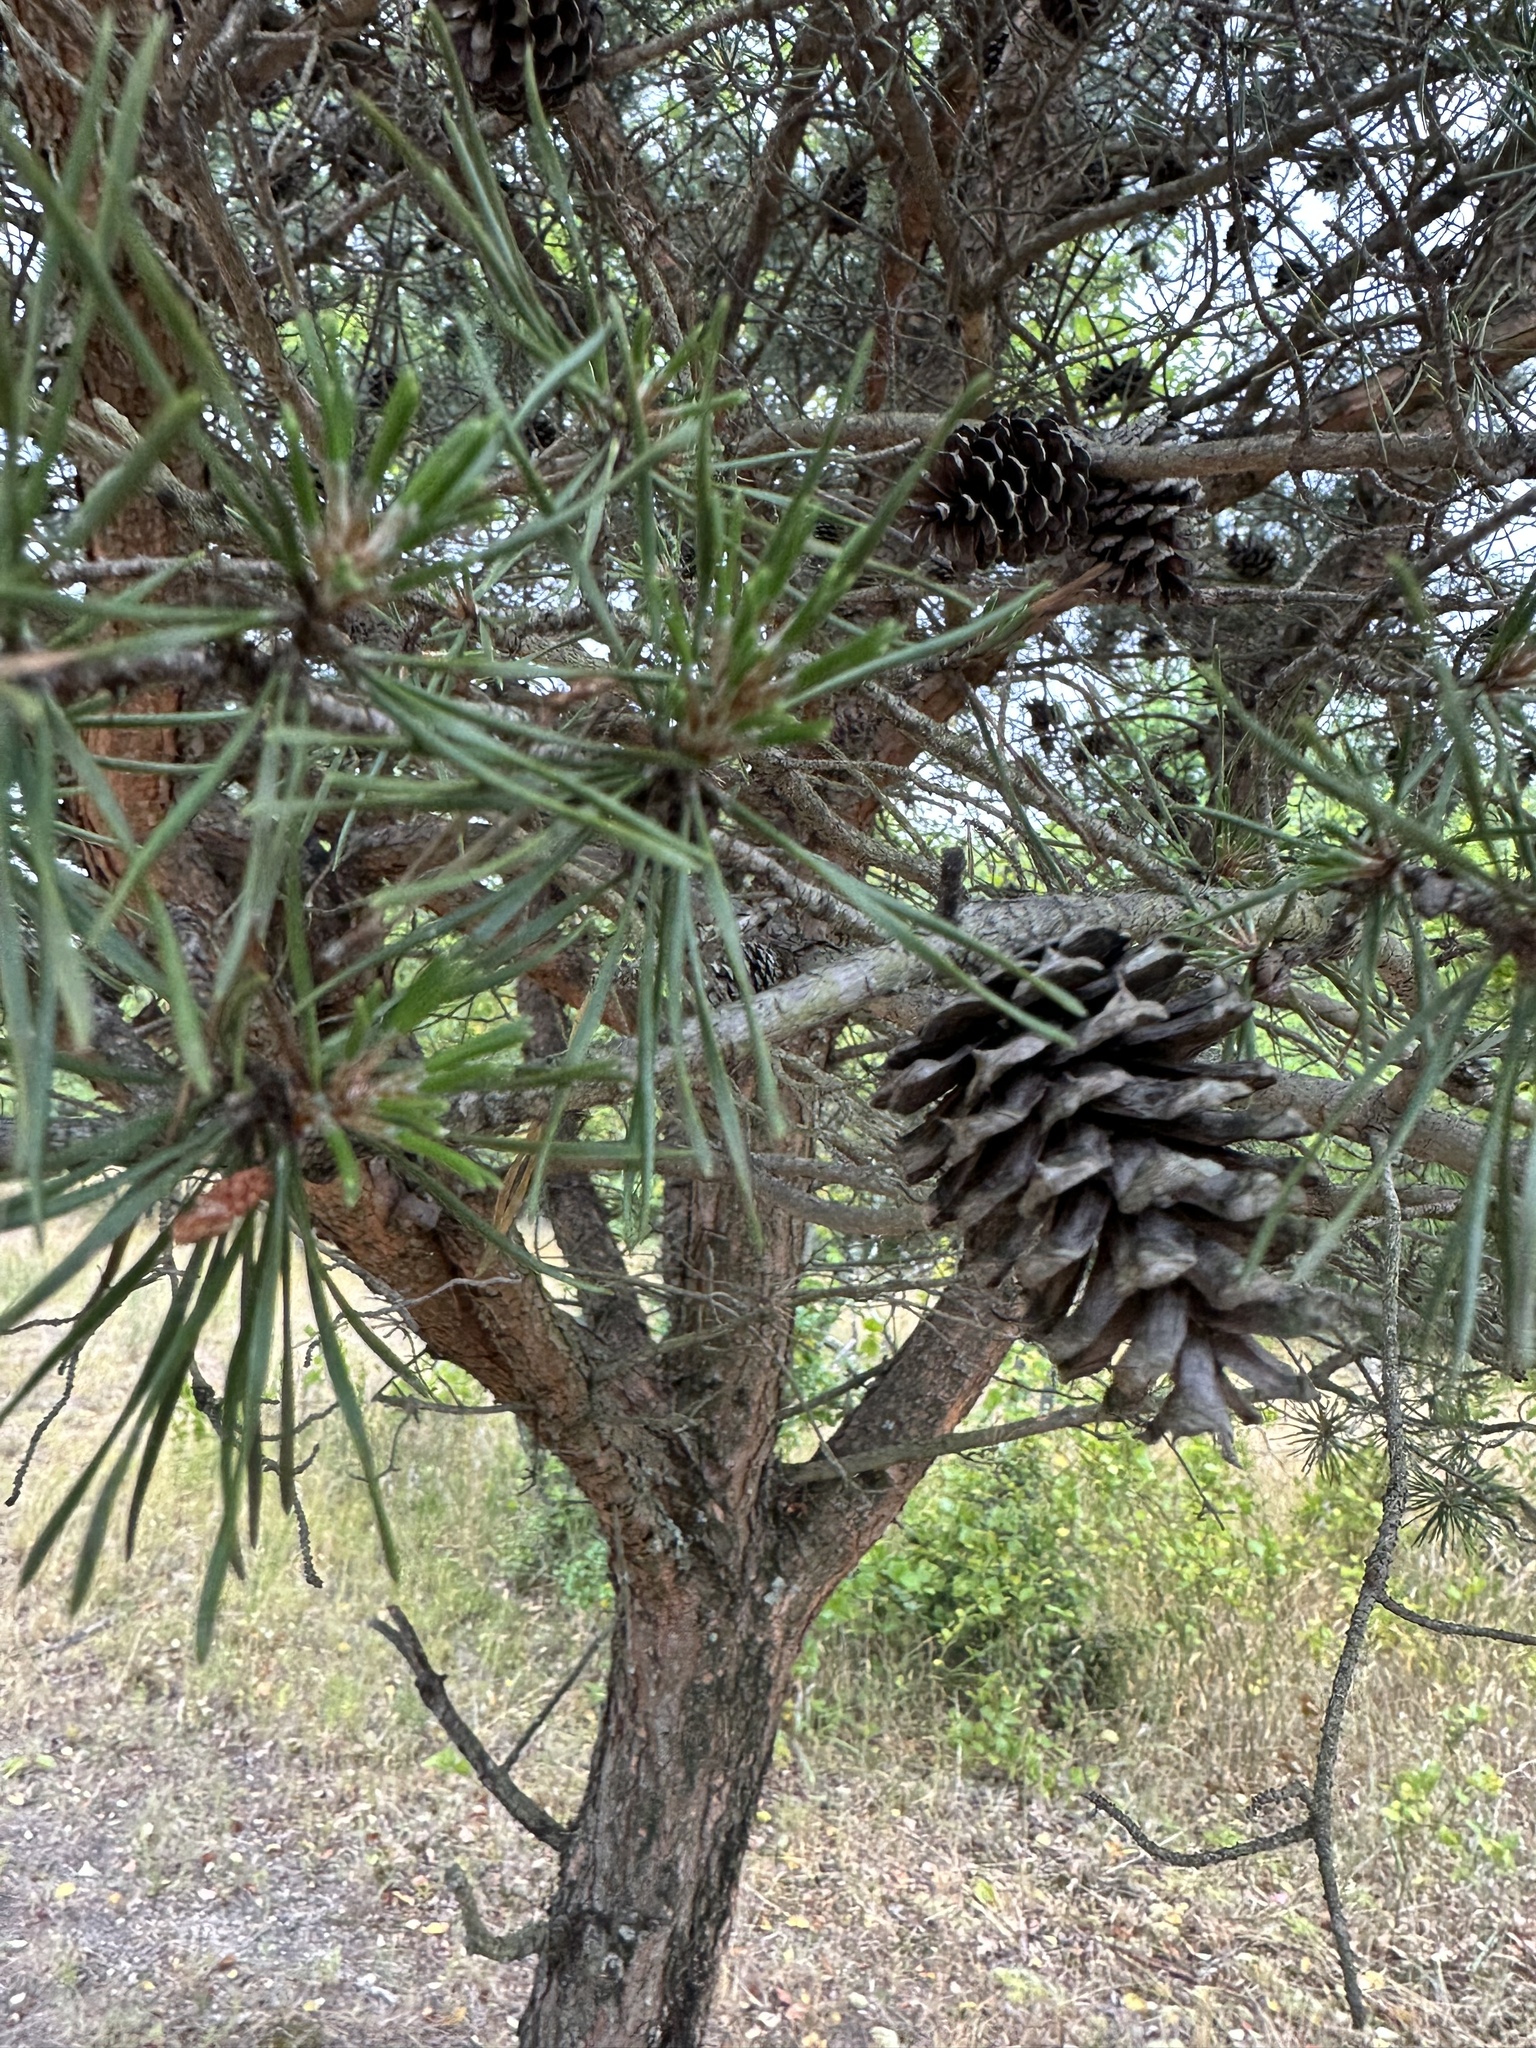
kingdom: Plantae
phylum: Tracheophyta
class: Pinopsida
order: Pinales
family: Pinaceae
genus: Pinus
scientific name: Pinus virginiana
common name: Scrub pine
